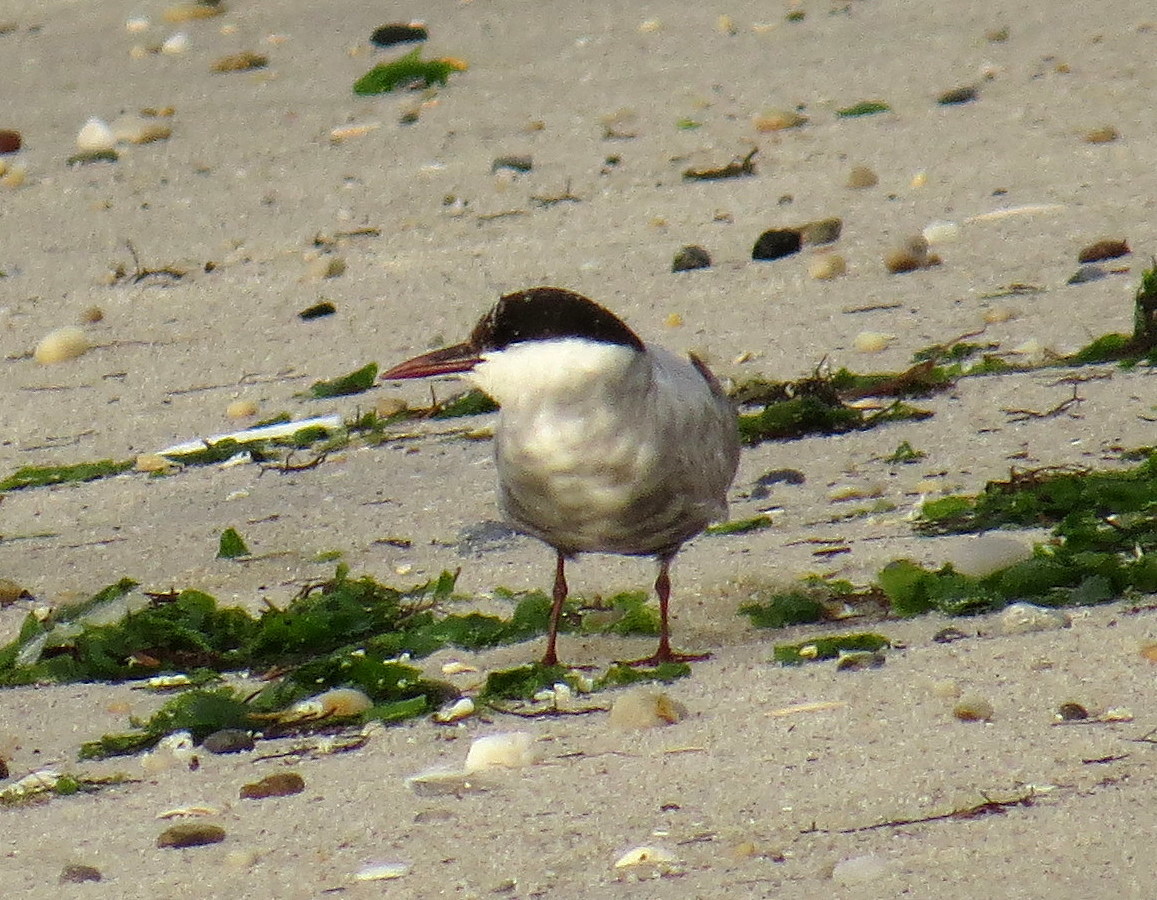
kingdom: Animalia
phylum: Chordata
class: Aves
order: Charadriiformes
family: Laridae
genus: Chlidonias
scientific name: Chlidonias hybrida
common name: Whiskered tern
